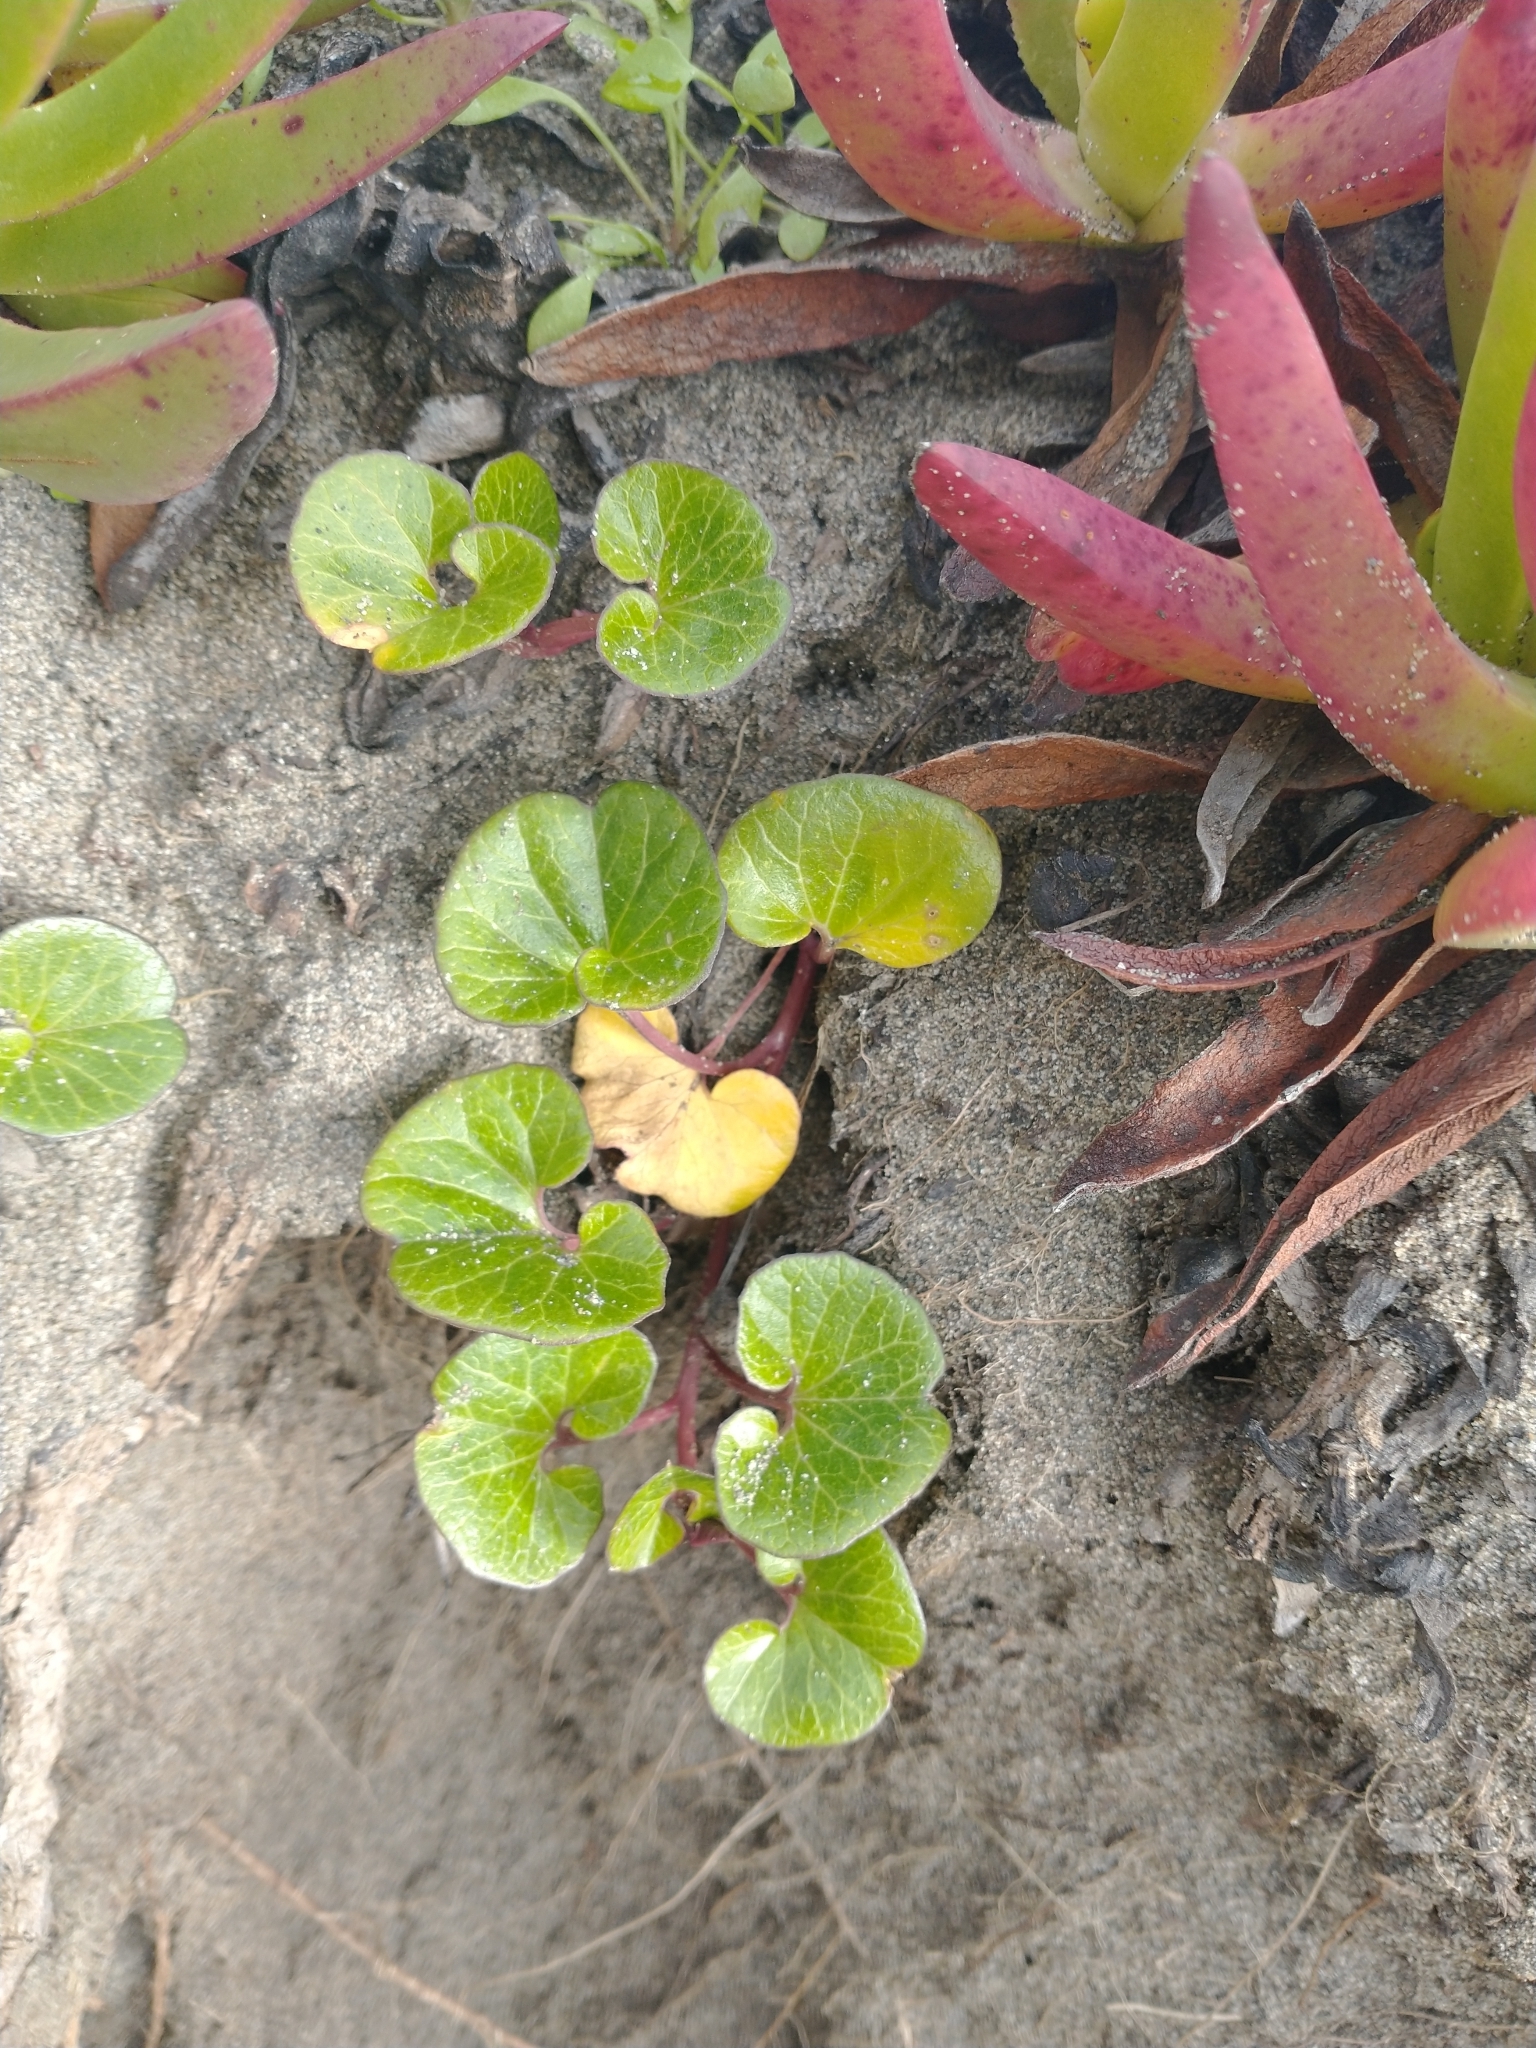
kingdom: Plantae
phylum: Tracheophyta
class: Magnoliopsida
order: Solanales
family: Convolvulaceae
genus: Calystegia
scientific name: Calystegia soldanella
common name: Sea bindweed
